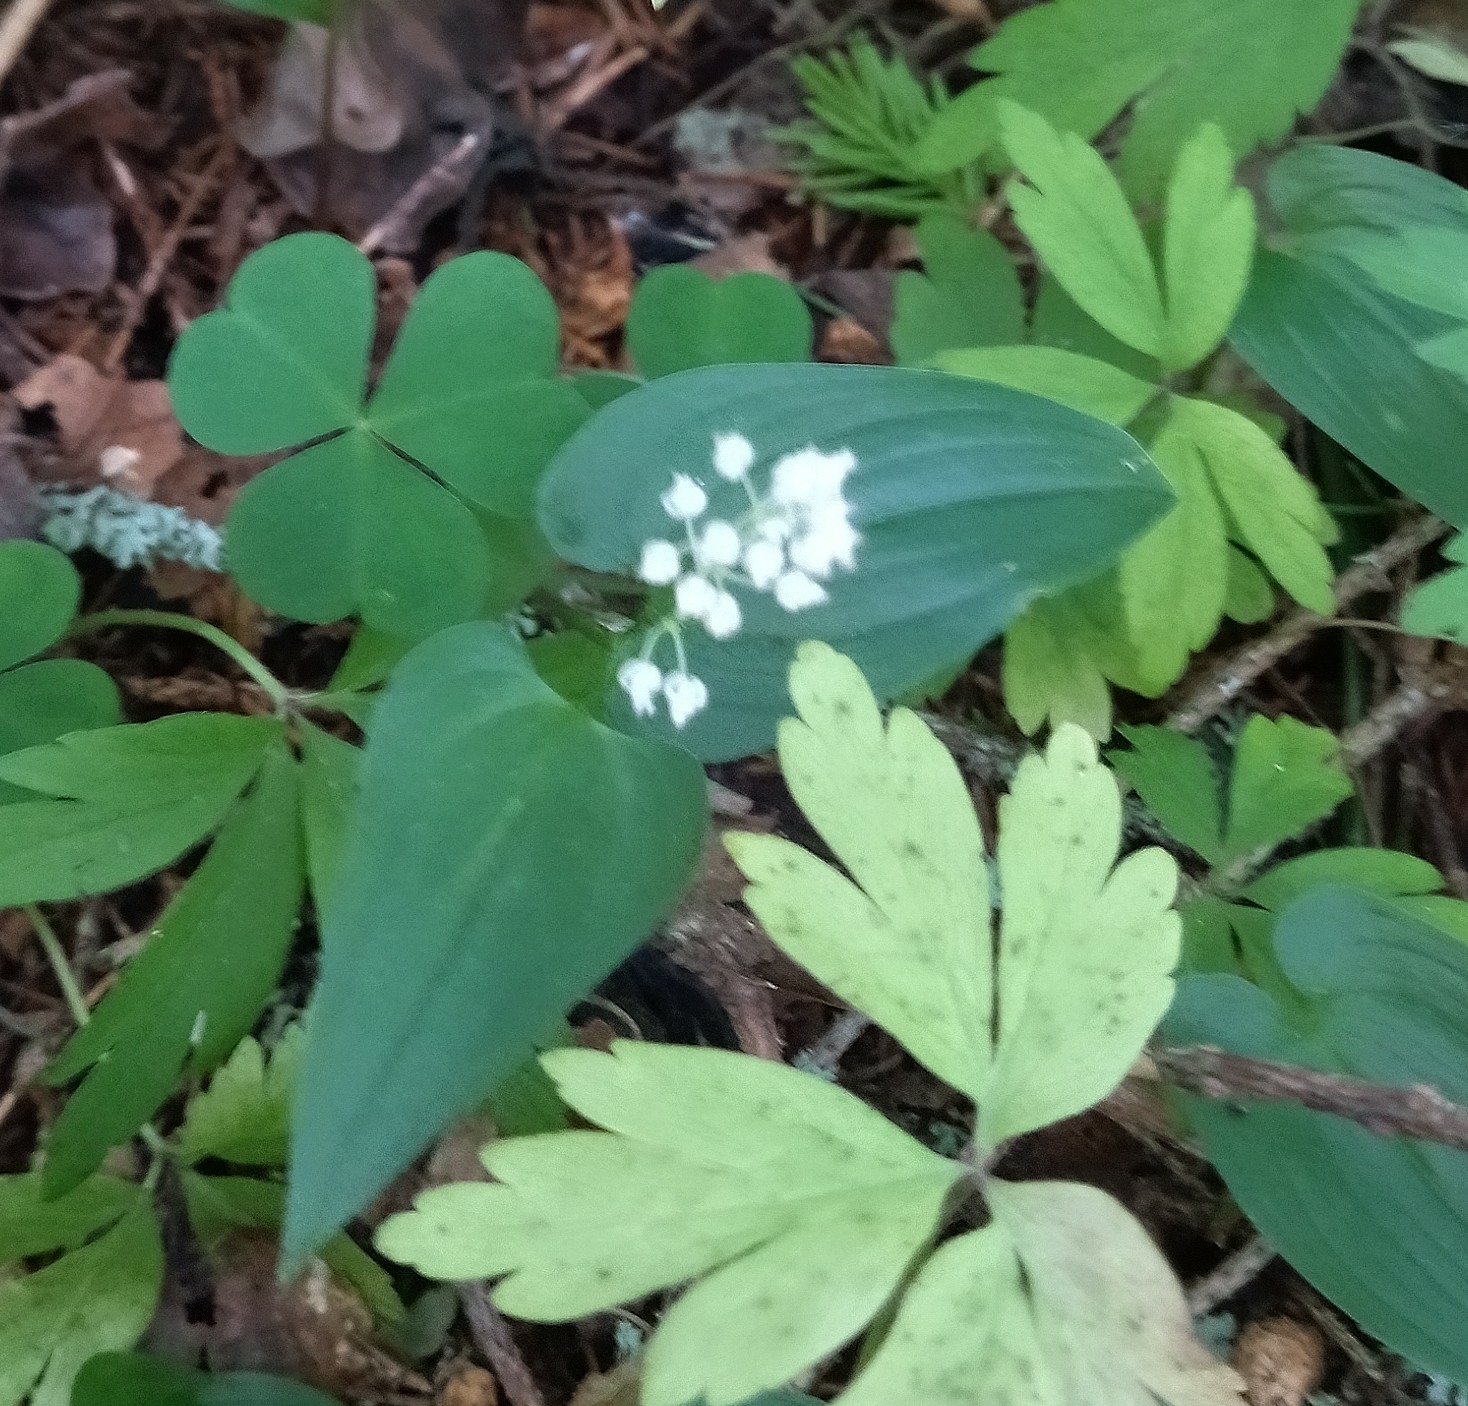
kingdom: Plantae
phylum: Tracheophyta
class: Liliopsida
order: Asparagales
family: Asparagaceae
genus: Maianthemum
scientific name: Maianthemum bifolium
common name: May lily
